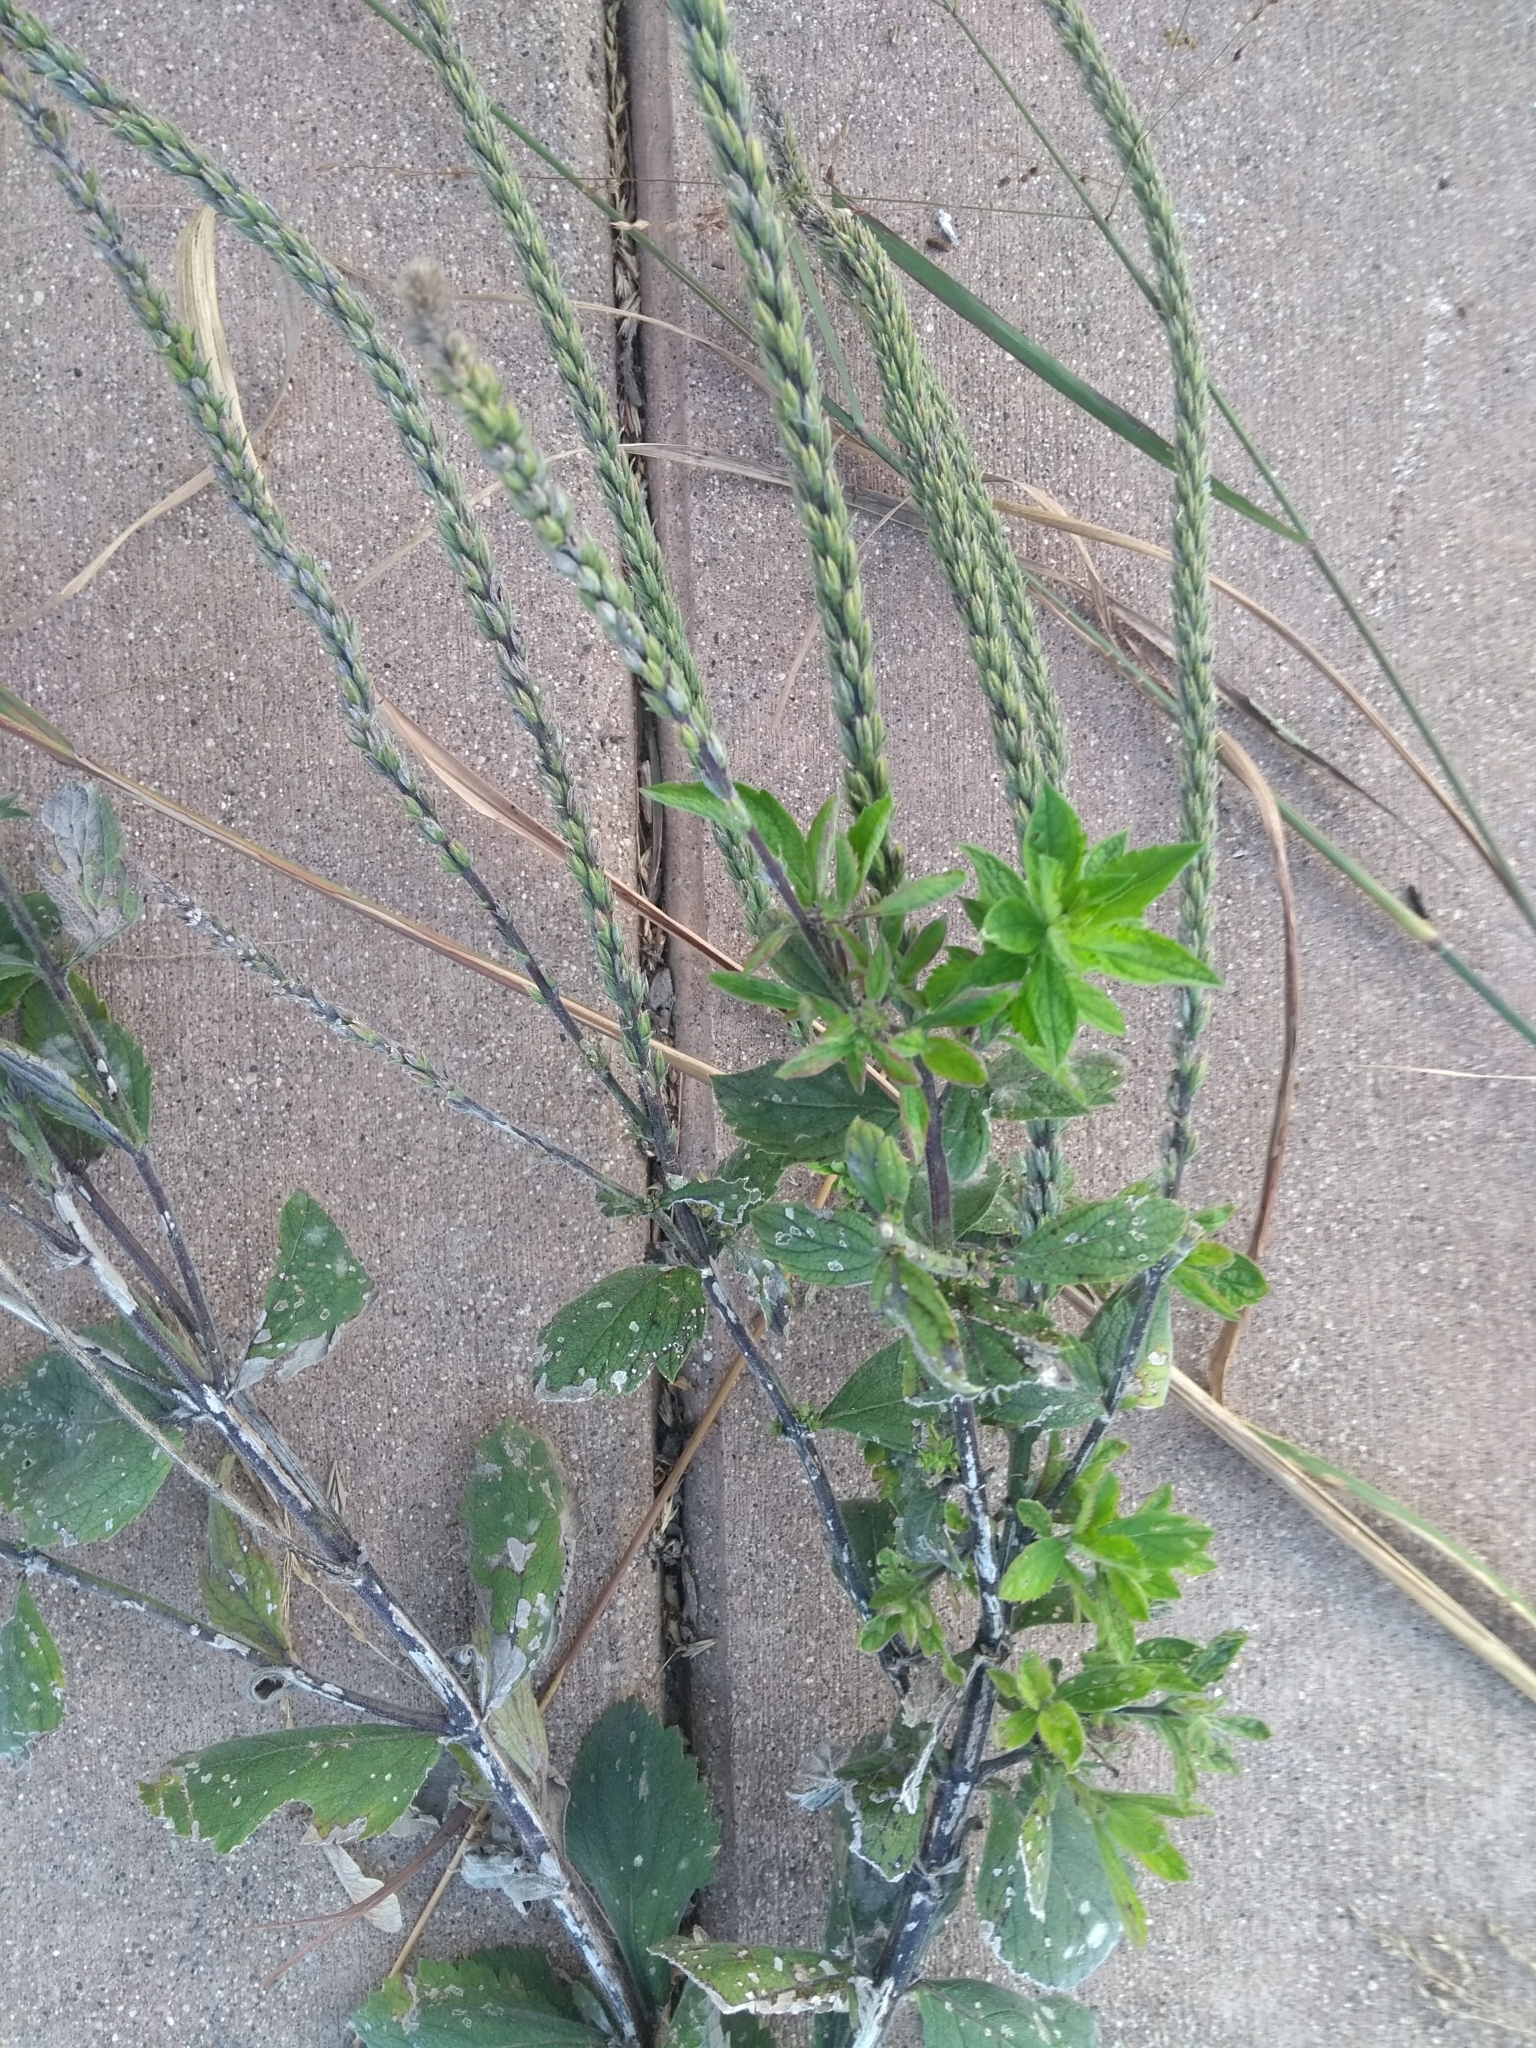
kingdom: Plantae
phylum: Tracheophyta
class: Magnoliopsida
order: Lamiales
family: Verbenaceae
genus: Verbena
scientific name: Verbena stricta
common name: Hoary vervain
